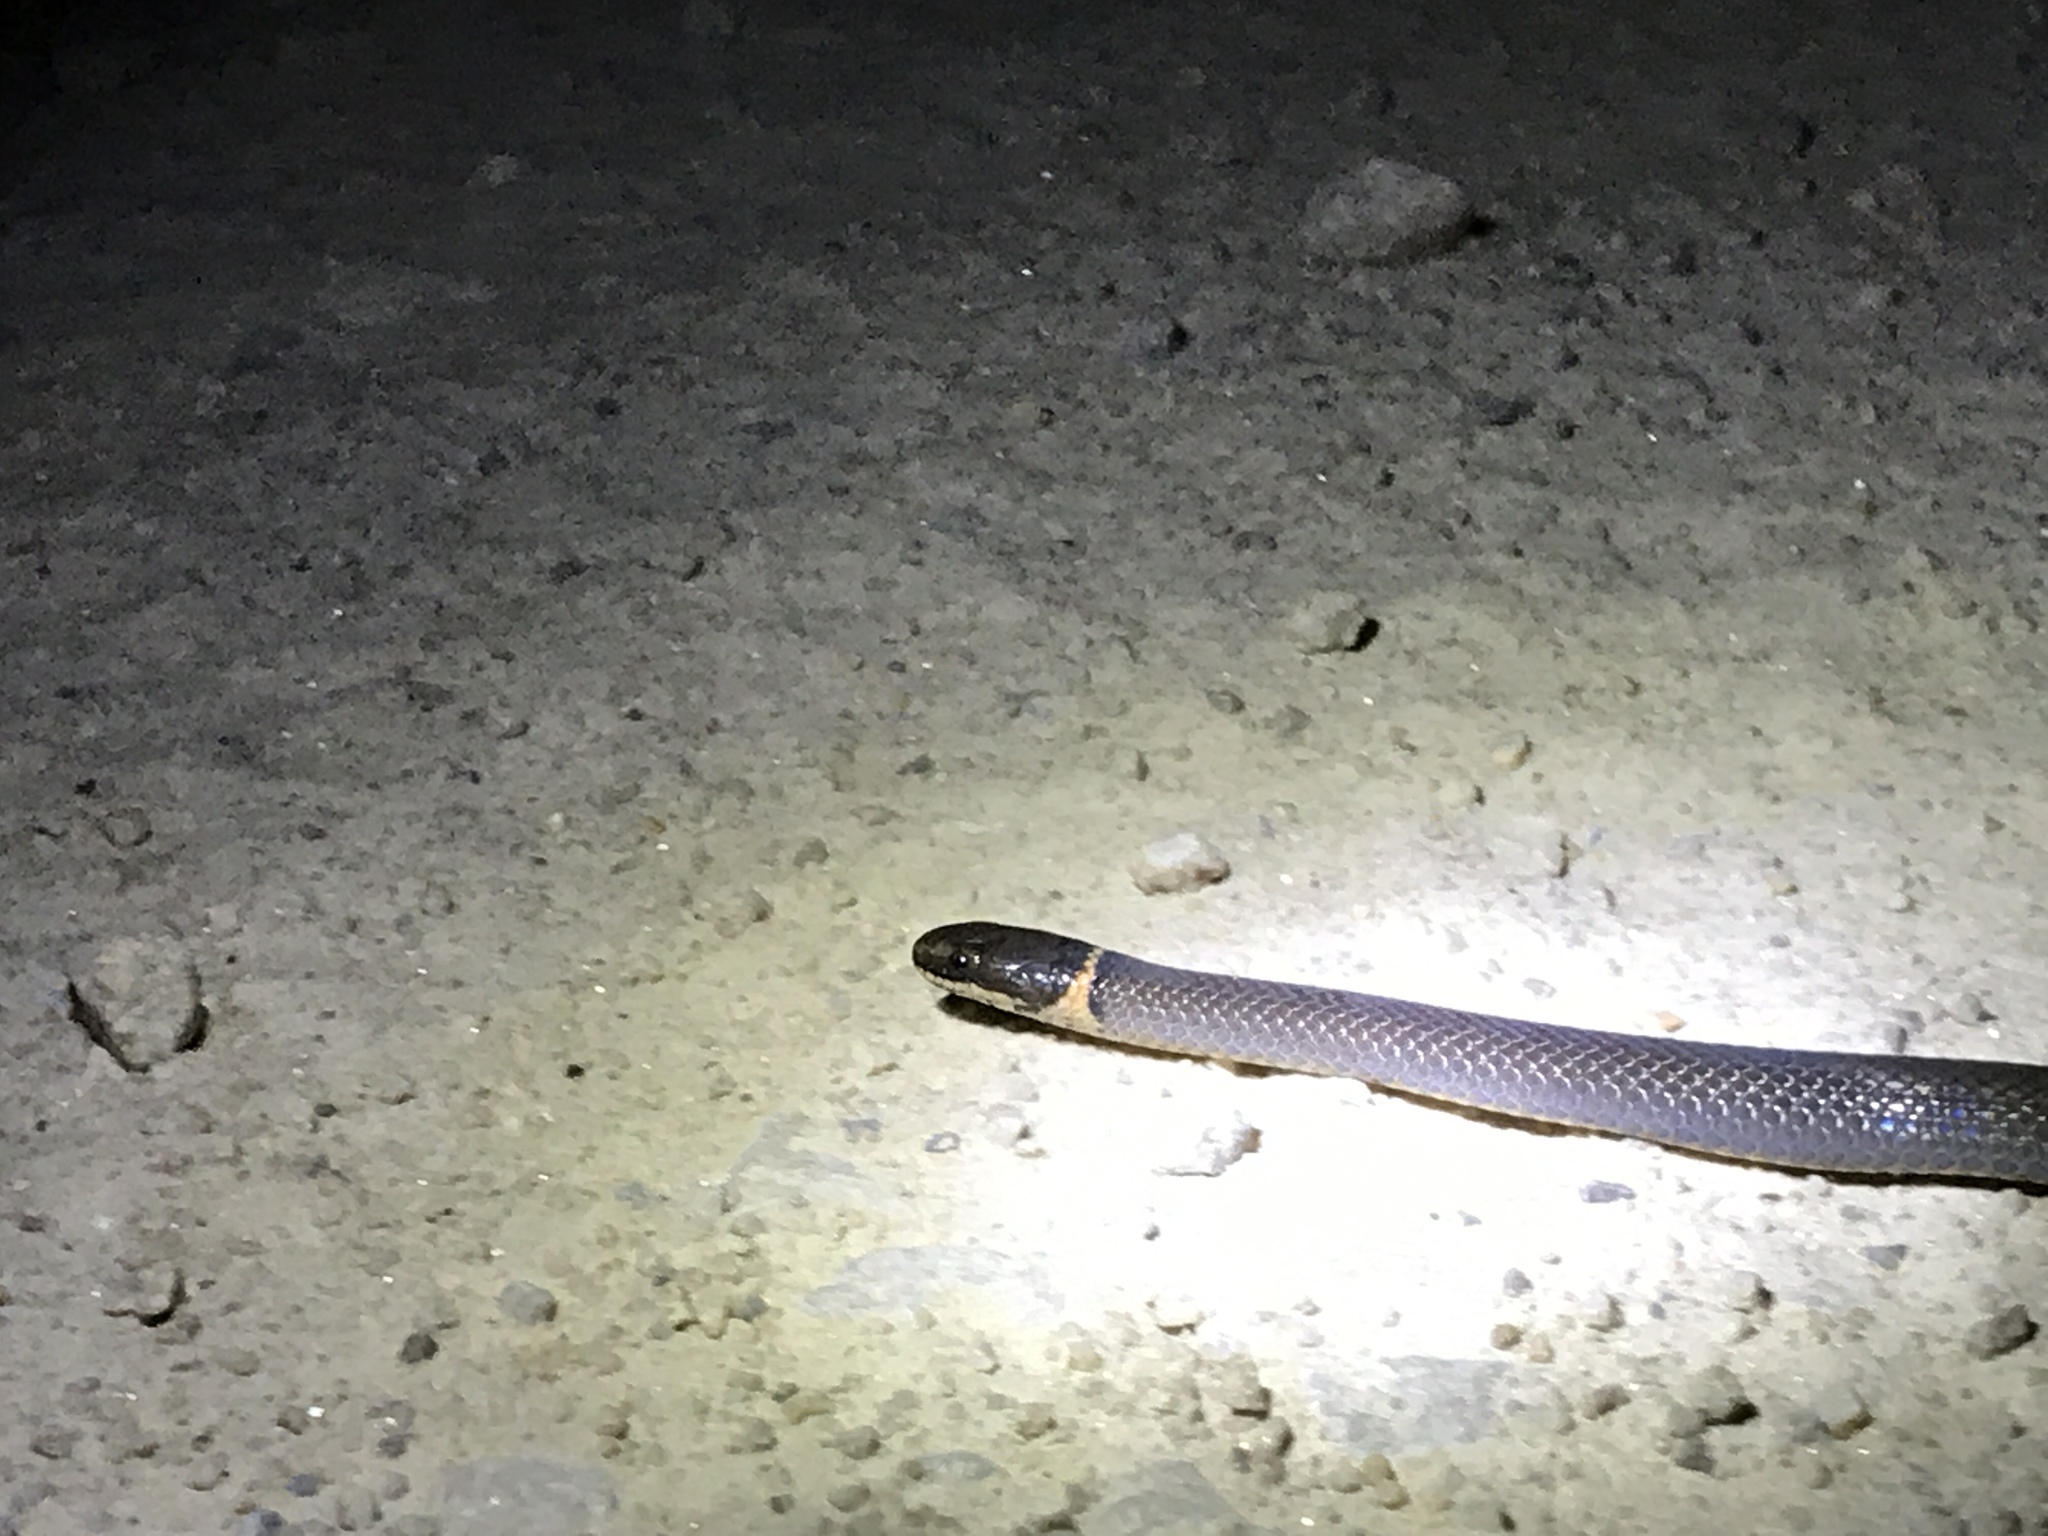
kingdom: Animalia
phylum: Chordata
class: Squamata
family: Colubridae
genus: Diadophis
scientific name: Diadophis punctatus
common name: Ringneck snake
